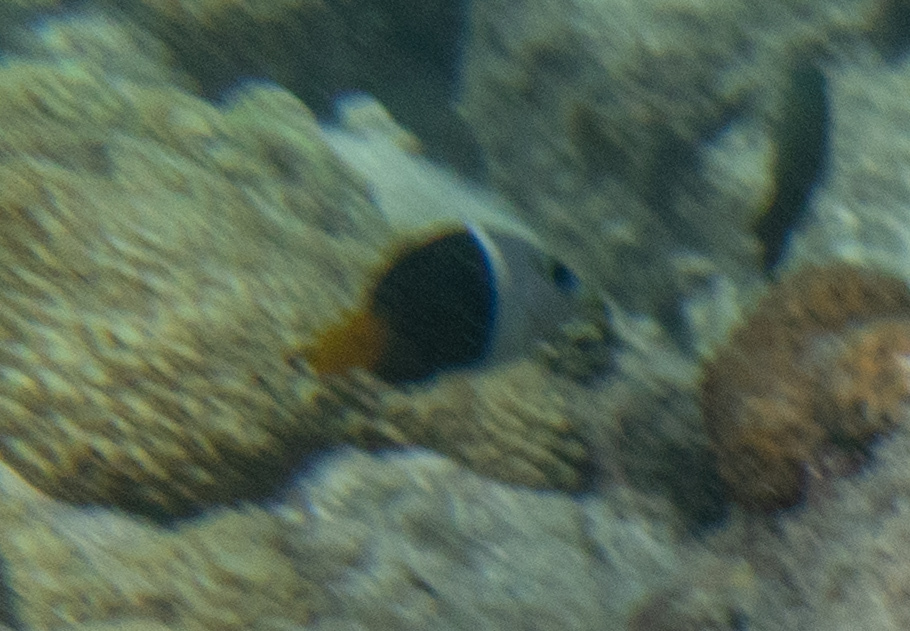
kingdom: Animalia
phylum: Chordata
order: Perciformes
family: Labridae
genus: Hemigymnus
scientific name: Hemigymnus melapterus
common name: Blackeye thicklip
